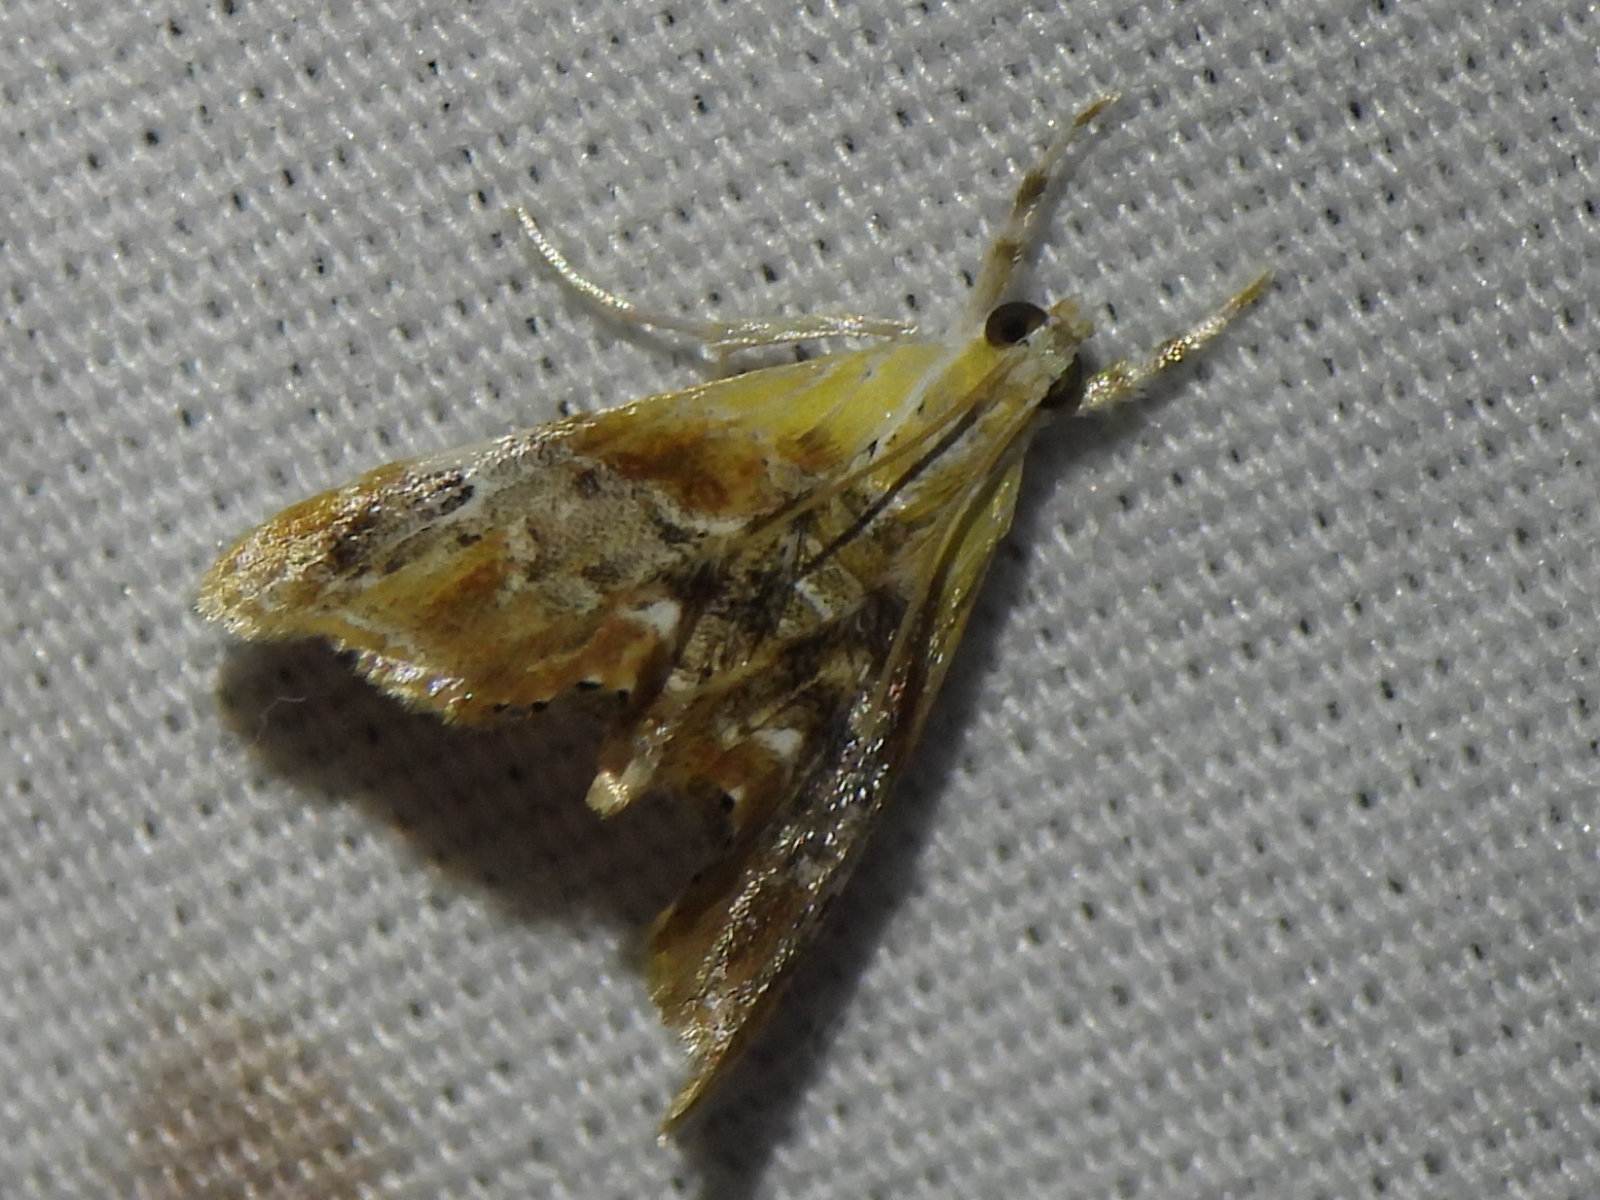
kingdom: Animalia
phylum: Arthropoda
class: Insecta
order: Lepidoptera
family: Crambidae
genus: Dicymolomia
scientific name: Dicymolomia julianalis
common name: Julia's dicymolomia moth
